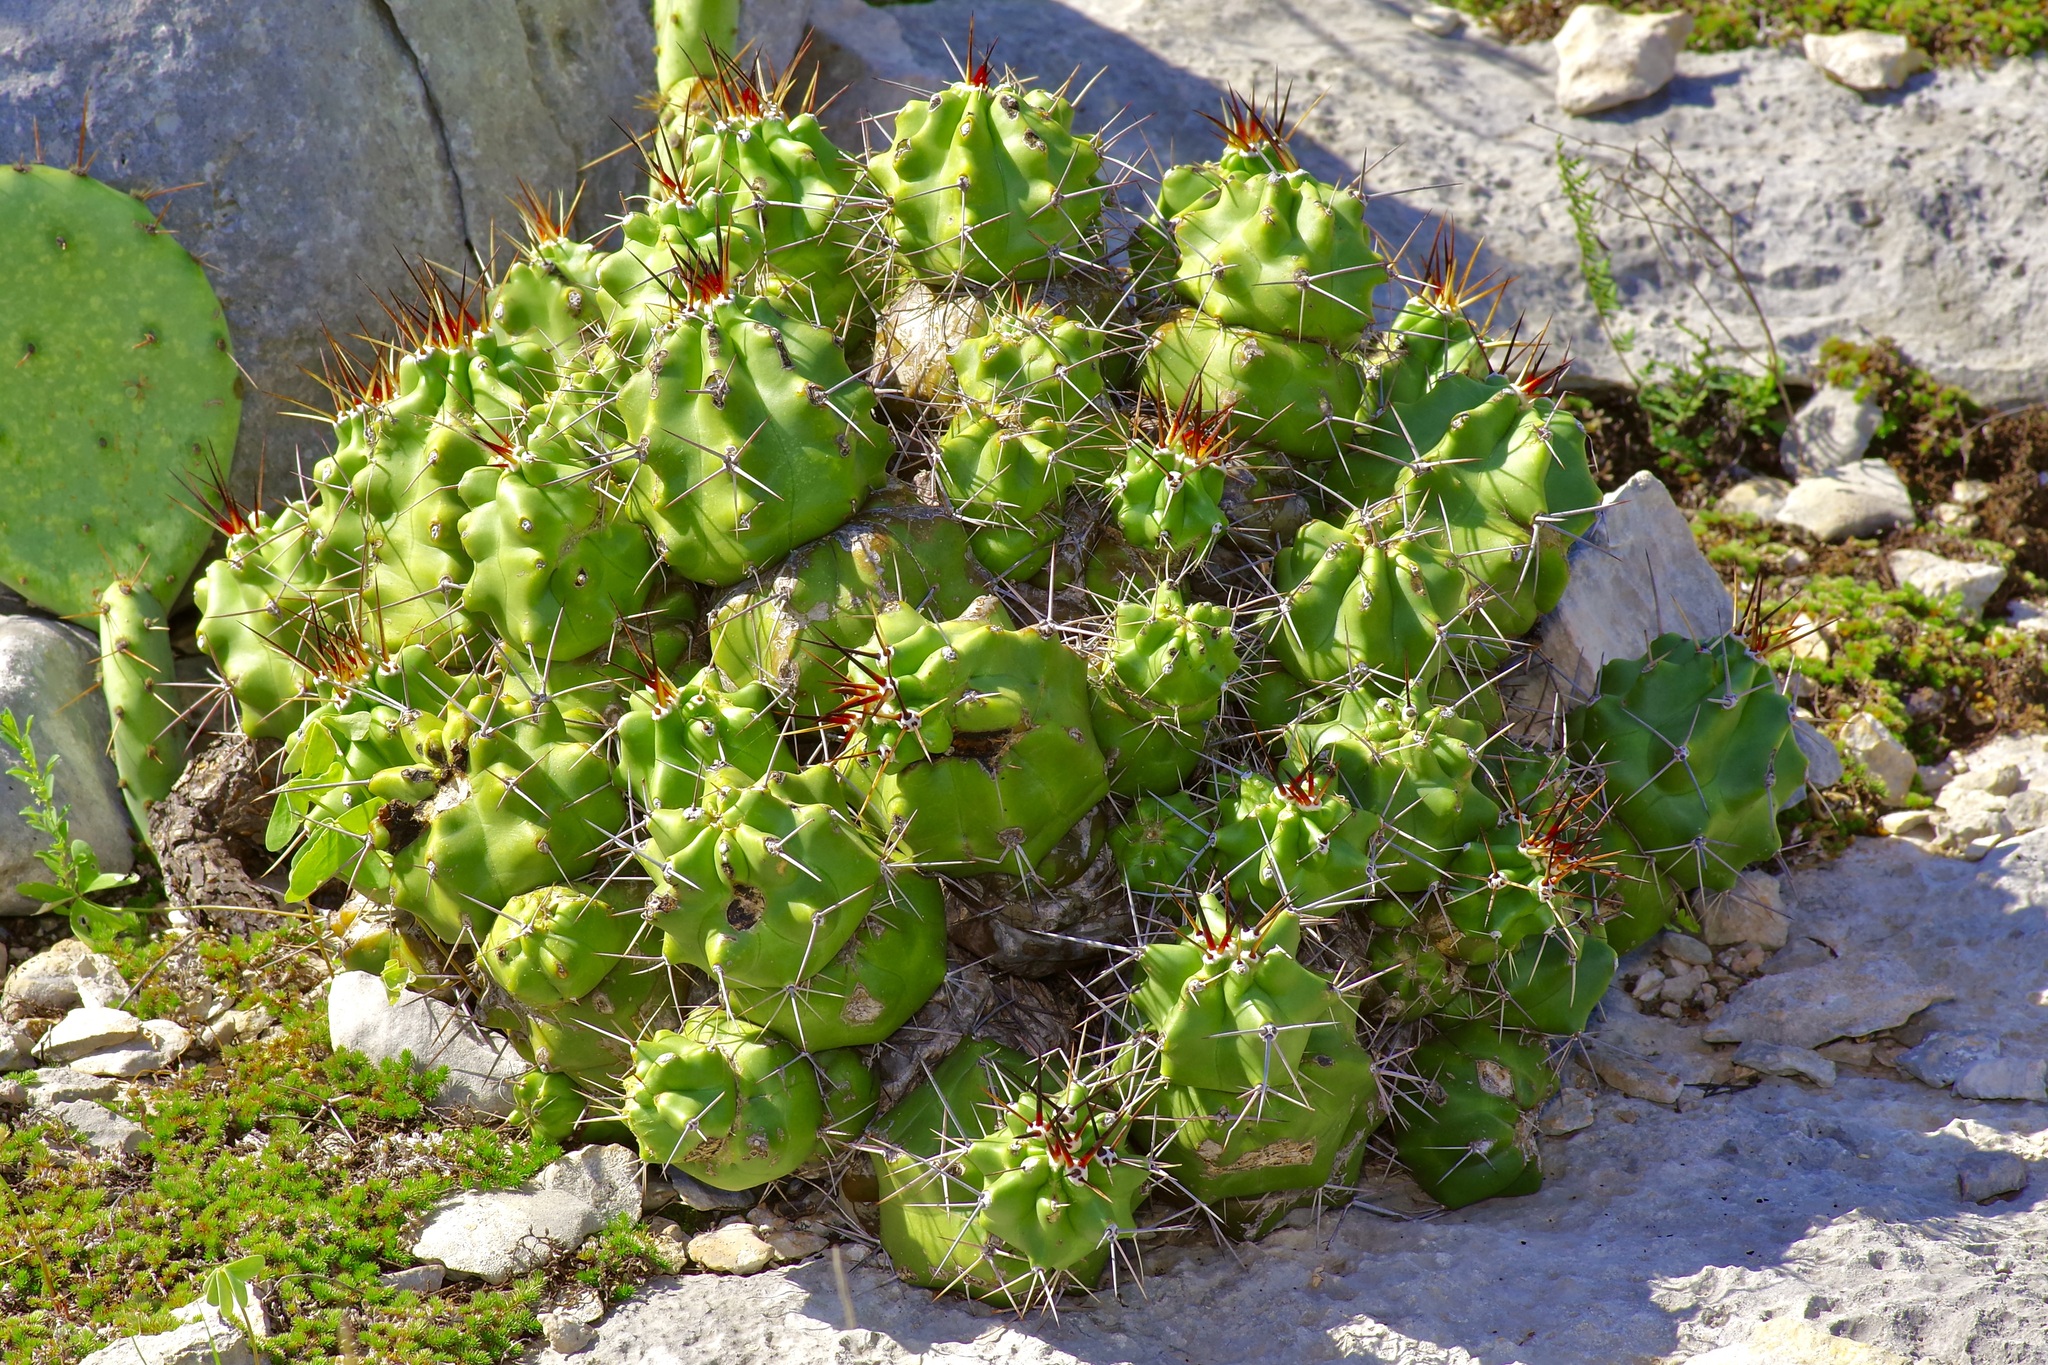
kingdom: Plantae
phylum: Tracheophyta
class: Magnoliopsida
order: Caryophyllales
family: Cactaceae
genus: Echinocereus
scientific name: Echinocereus coccineus
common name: Scarlet hedgehog cactus
